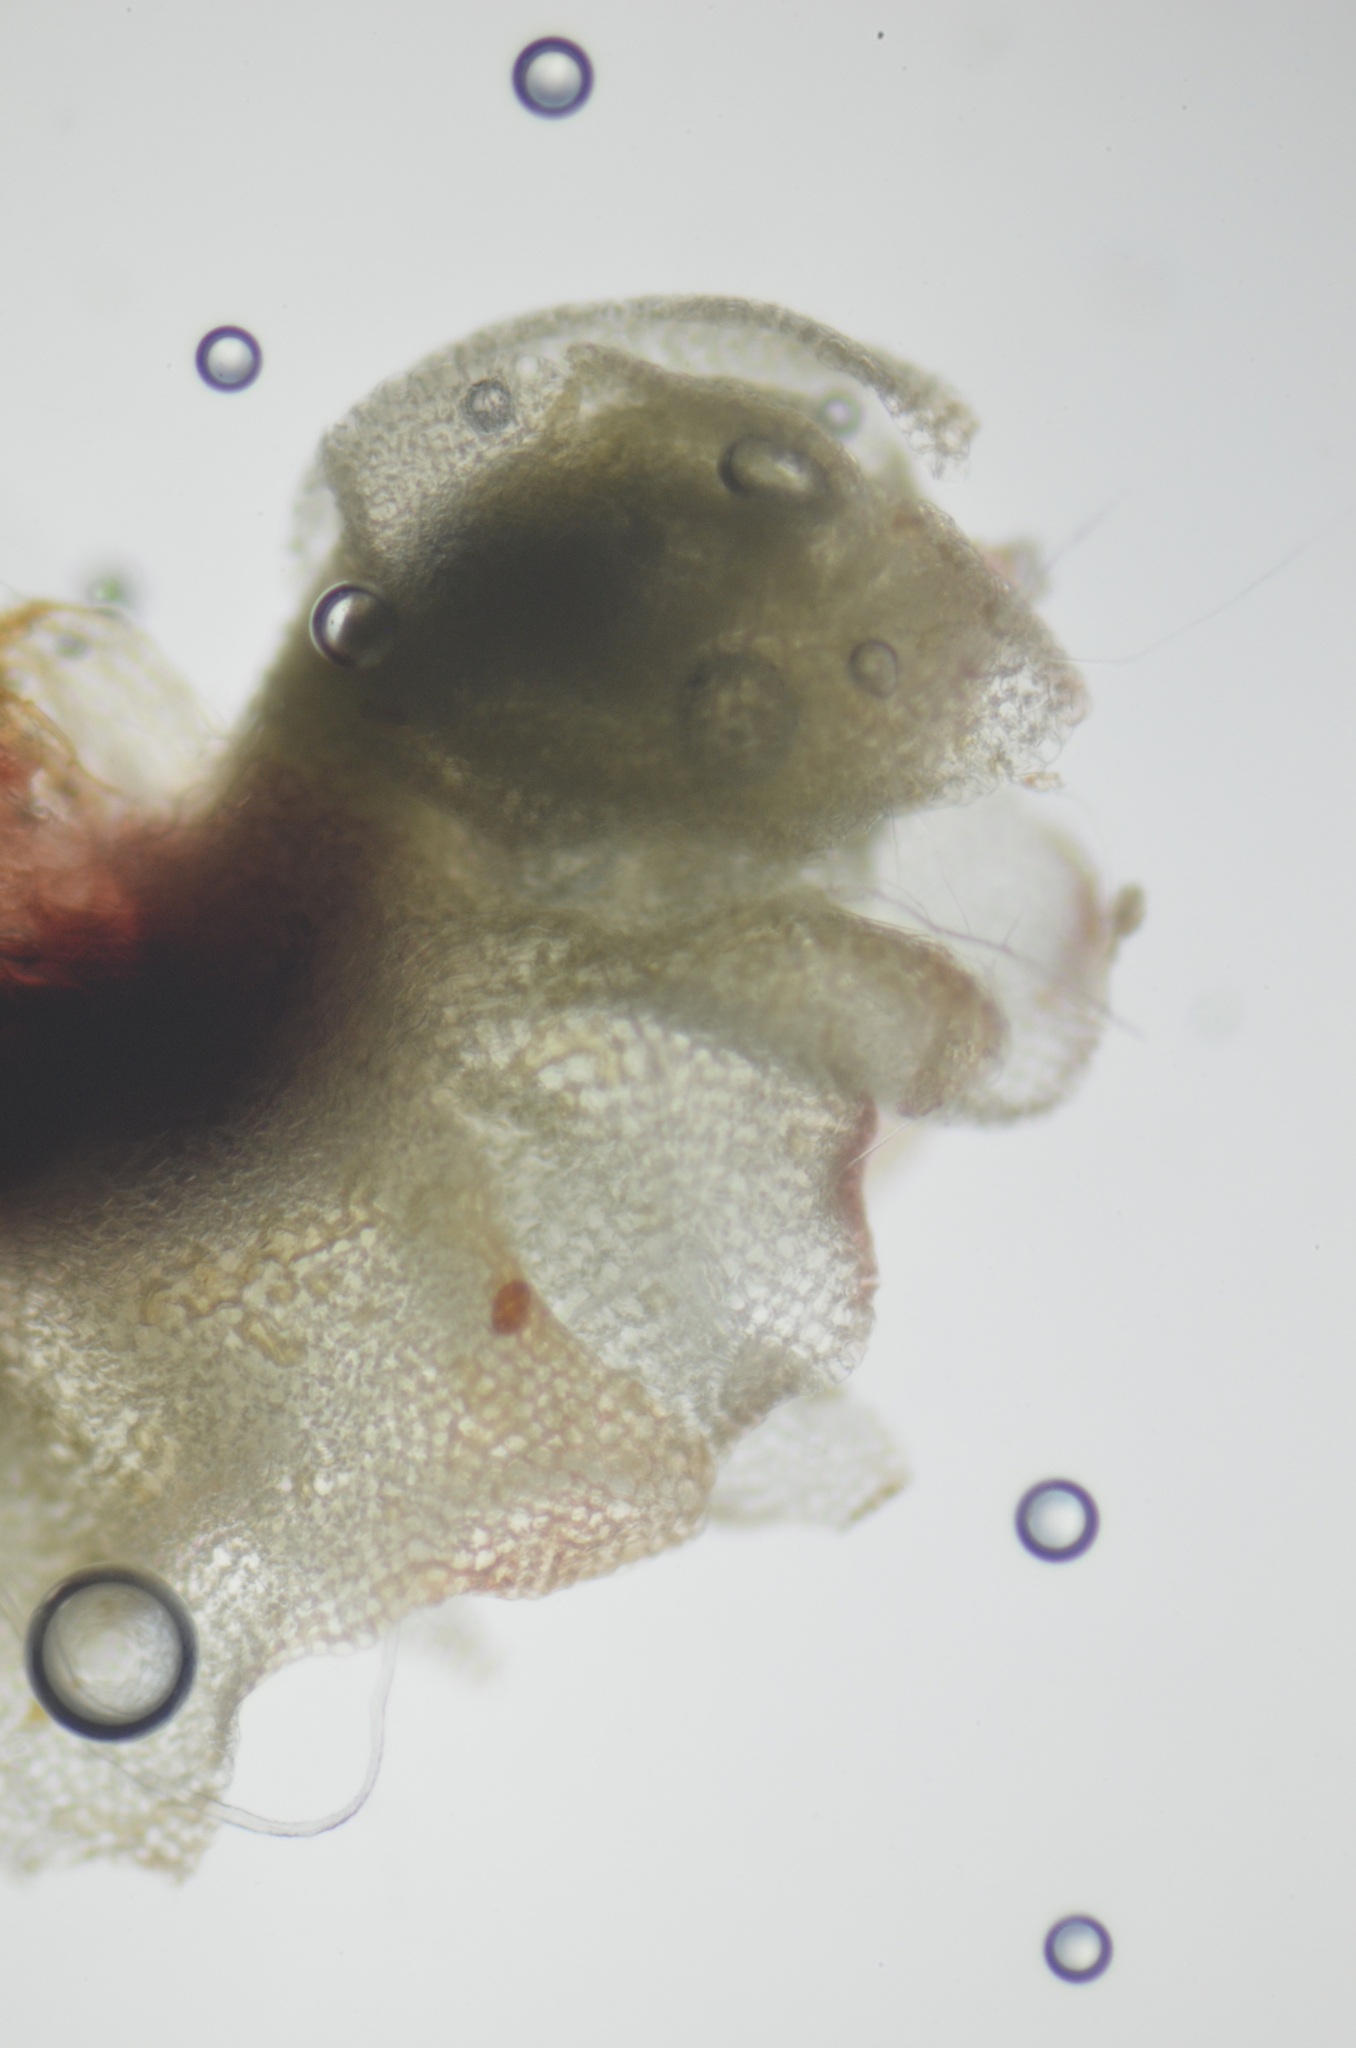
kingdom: Plantae
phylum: Marchantiophyta
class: Jungermanniopsida
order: Jungermanniales
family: Lophoziaceae
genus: Heterogemma
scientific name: Heterogemma laxa
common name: Marsh notchwort
